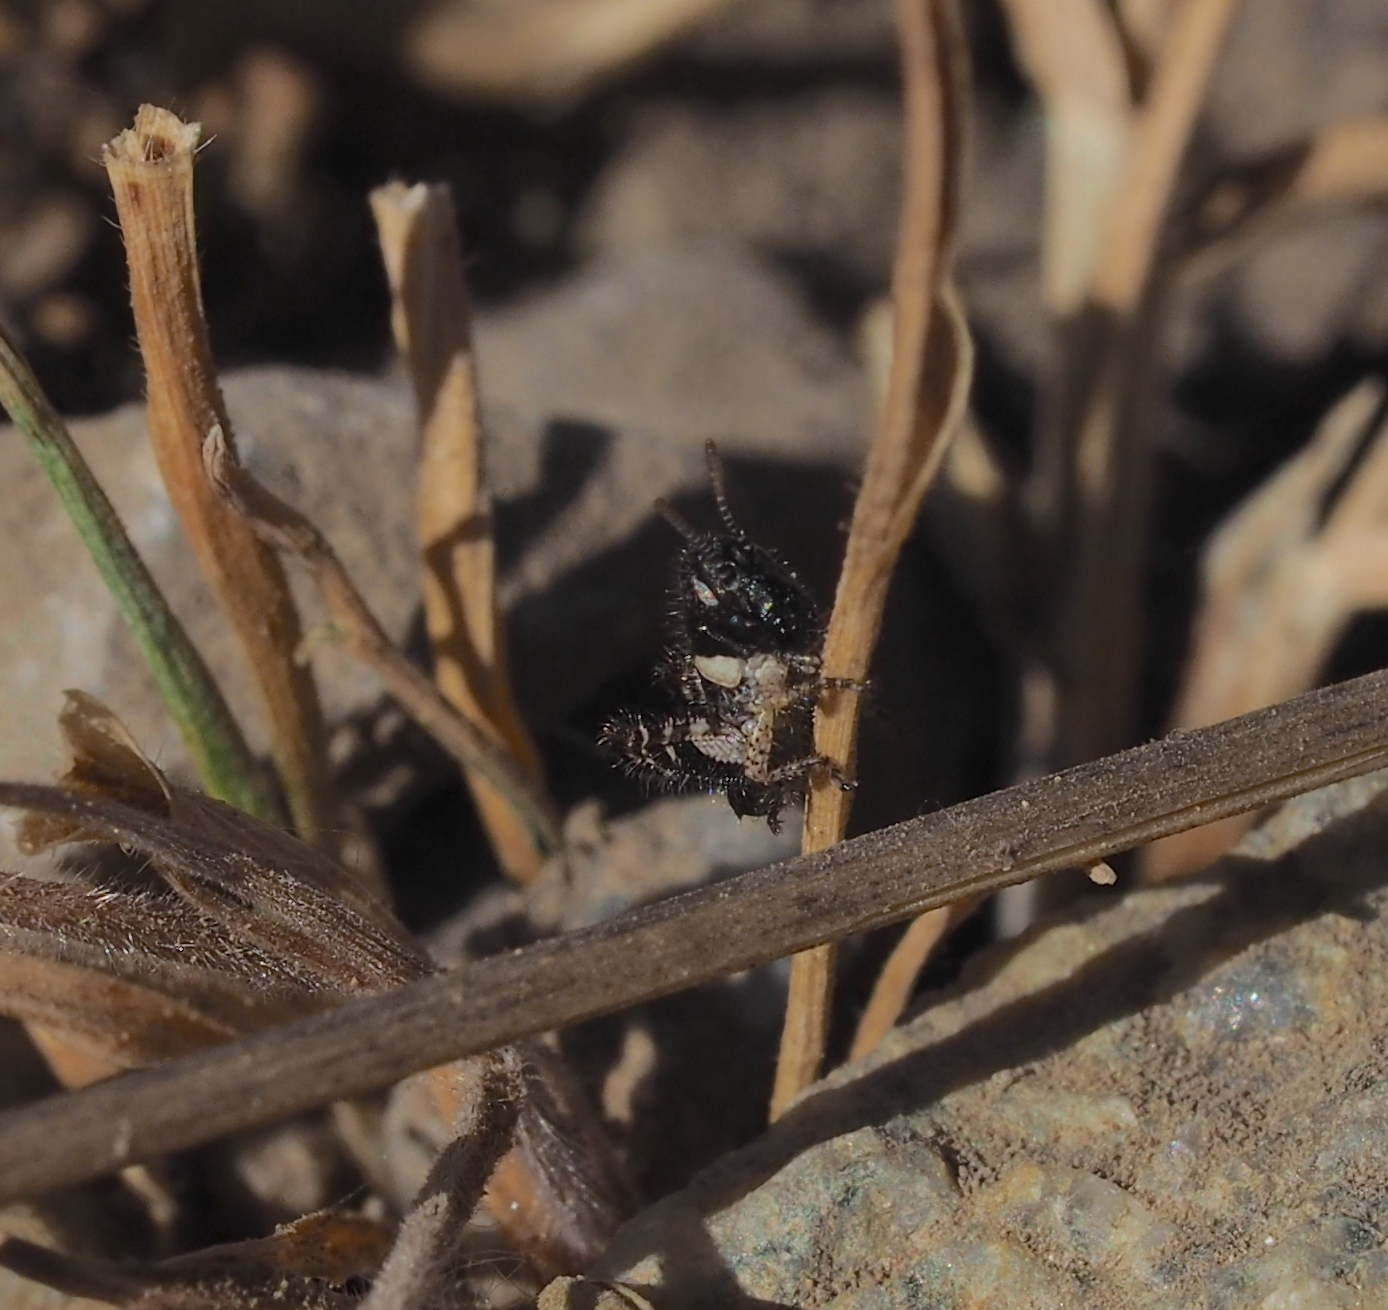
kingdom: Animalia
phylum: Arthropoda
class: Insecta
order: Orthoptera
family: Acrididae
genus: Calliptamus
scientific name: Calliptamus italicus
